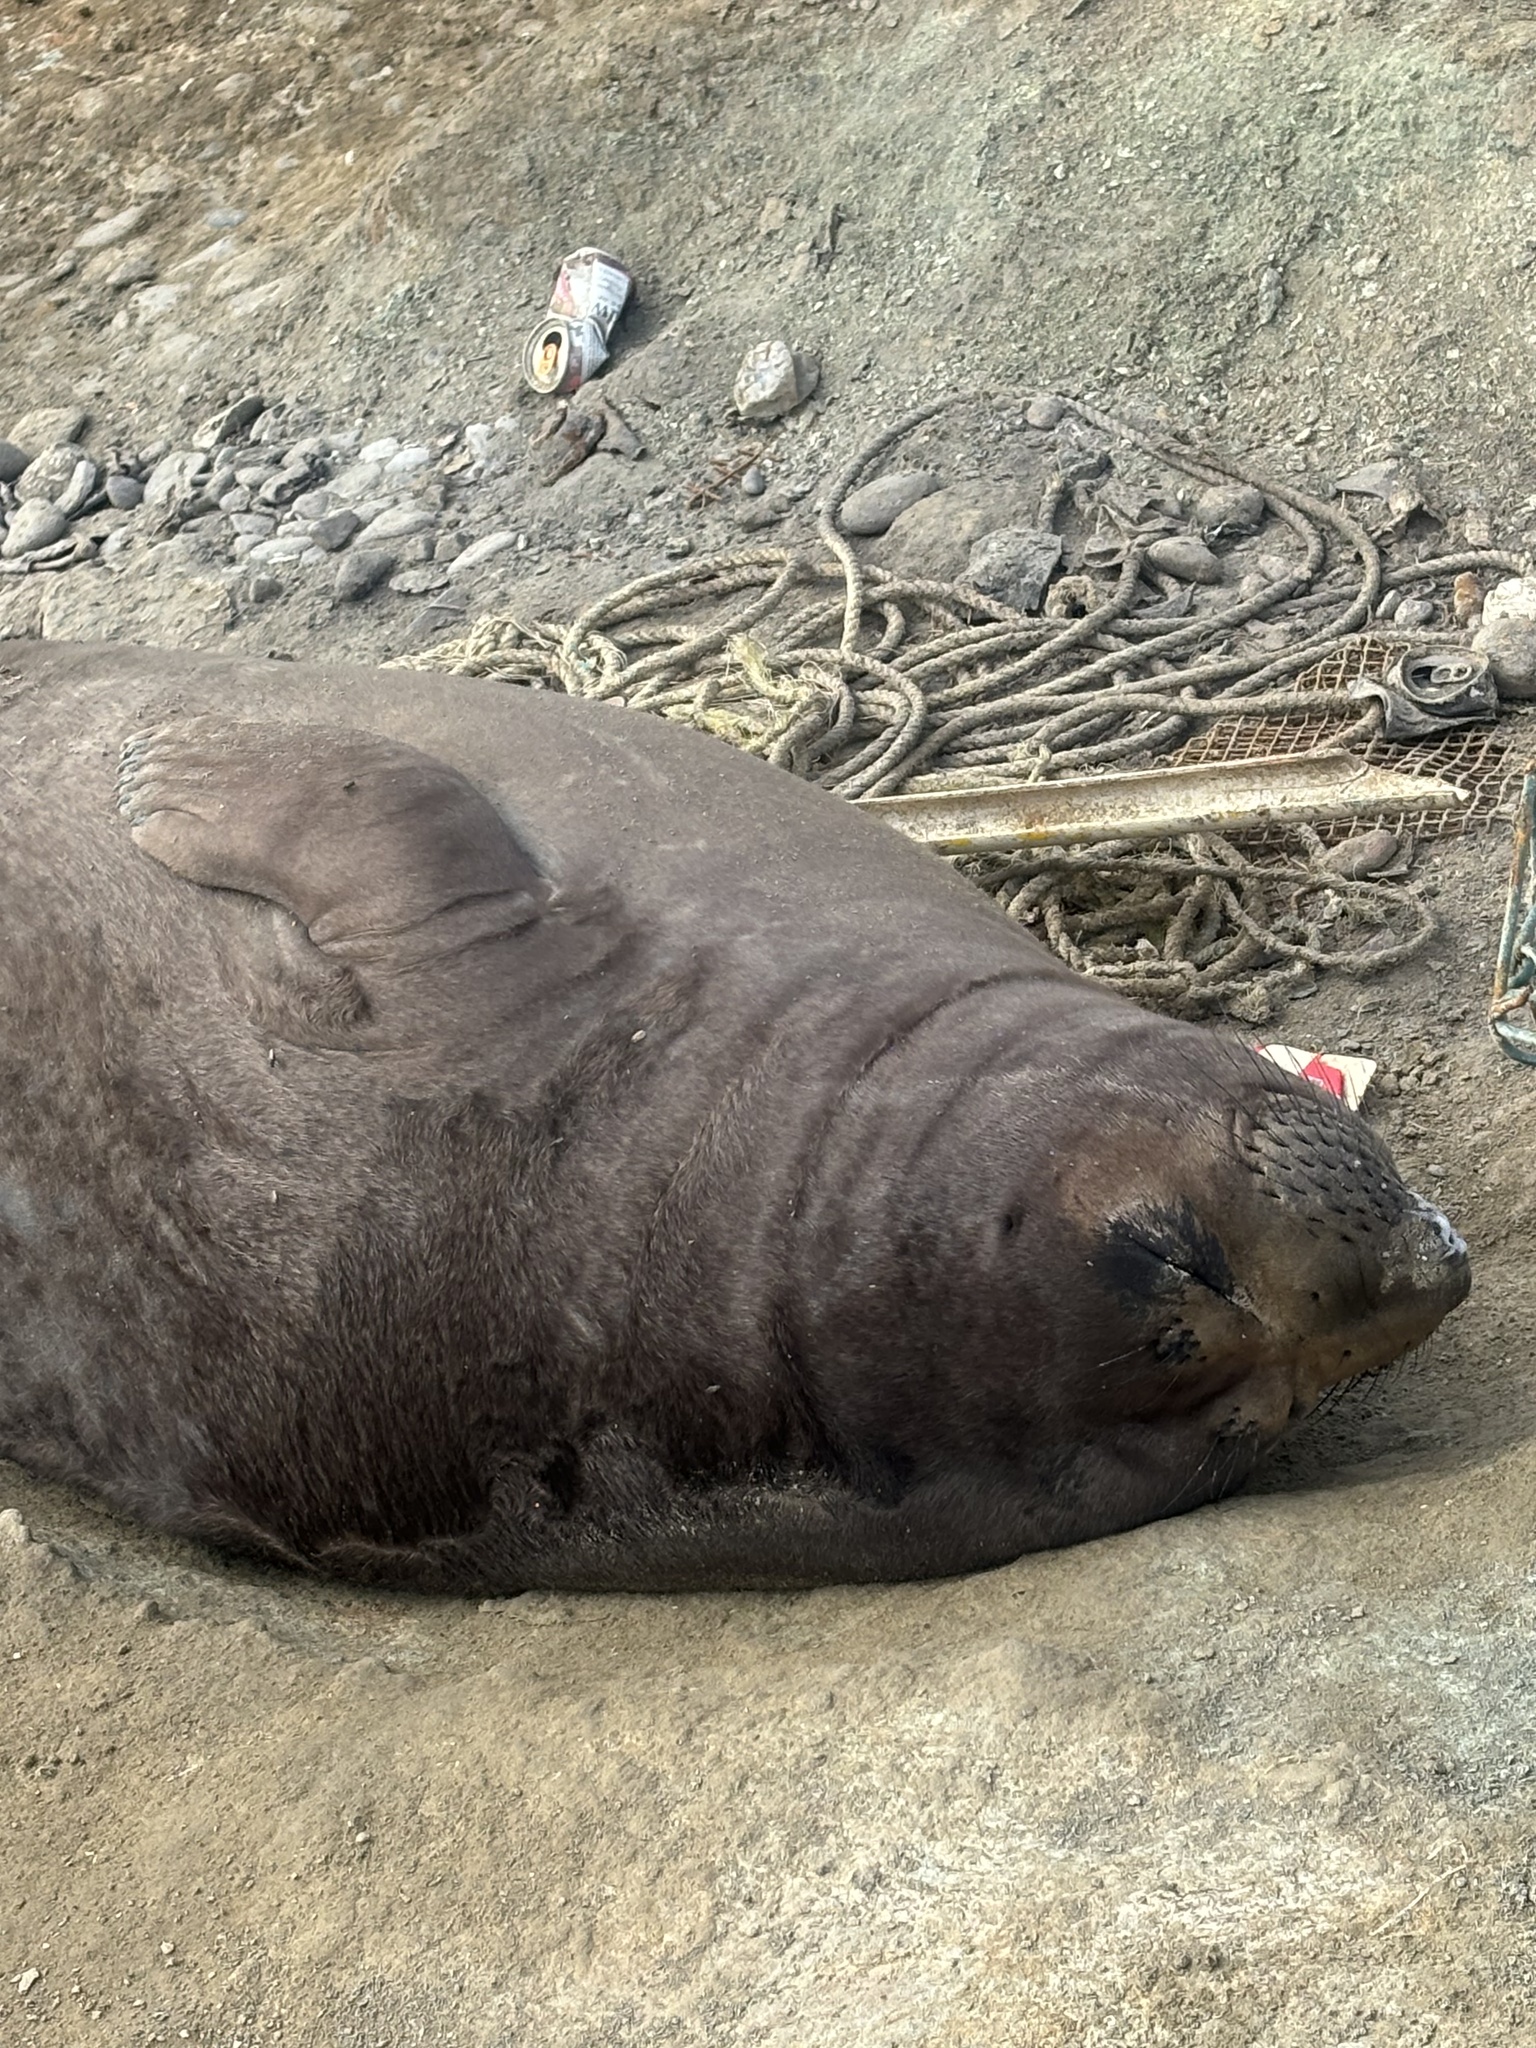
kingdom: Animalia
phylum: Chordata
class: Mammalia
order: Carnivora
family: Phocidae
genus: Mirounga
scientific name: Mirounga angustirostris
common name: Northern elephant seal
